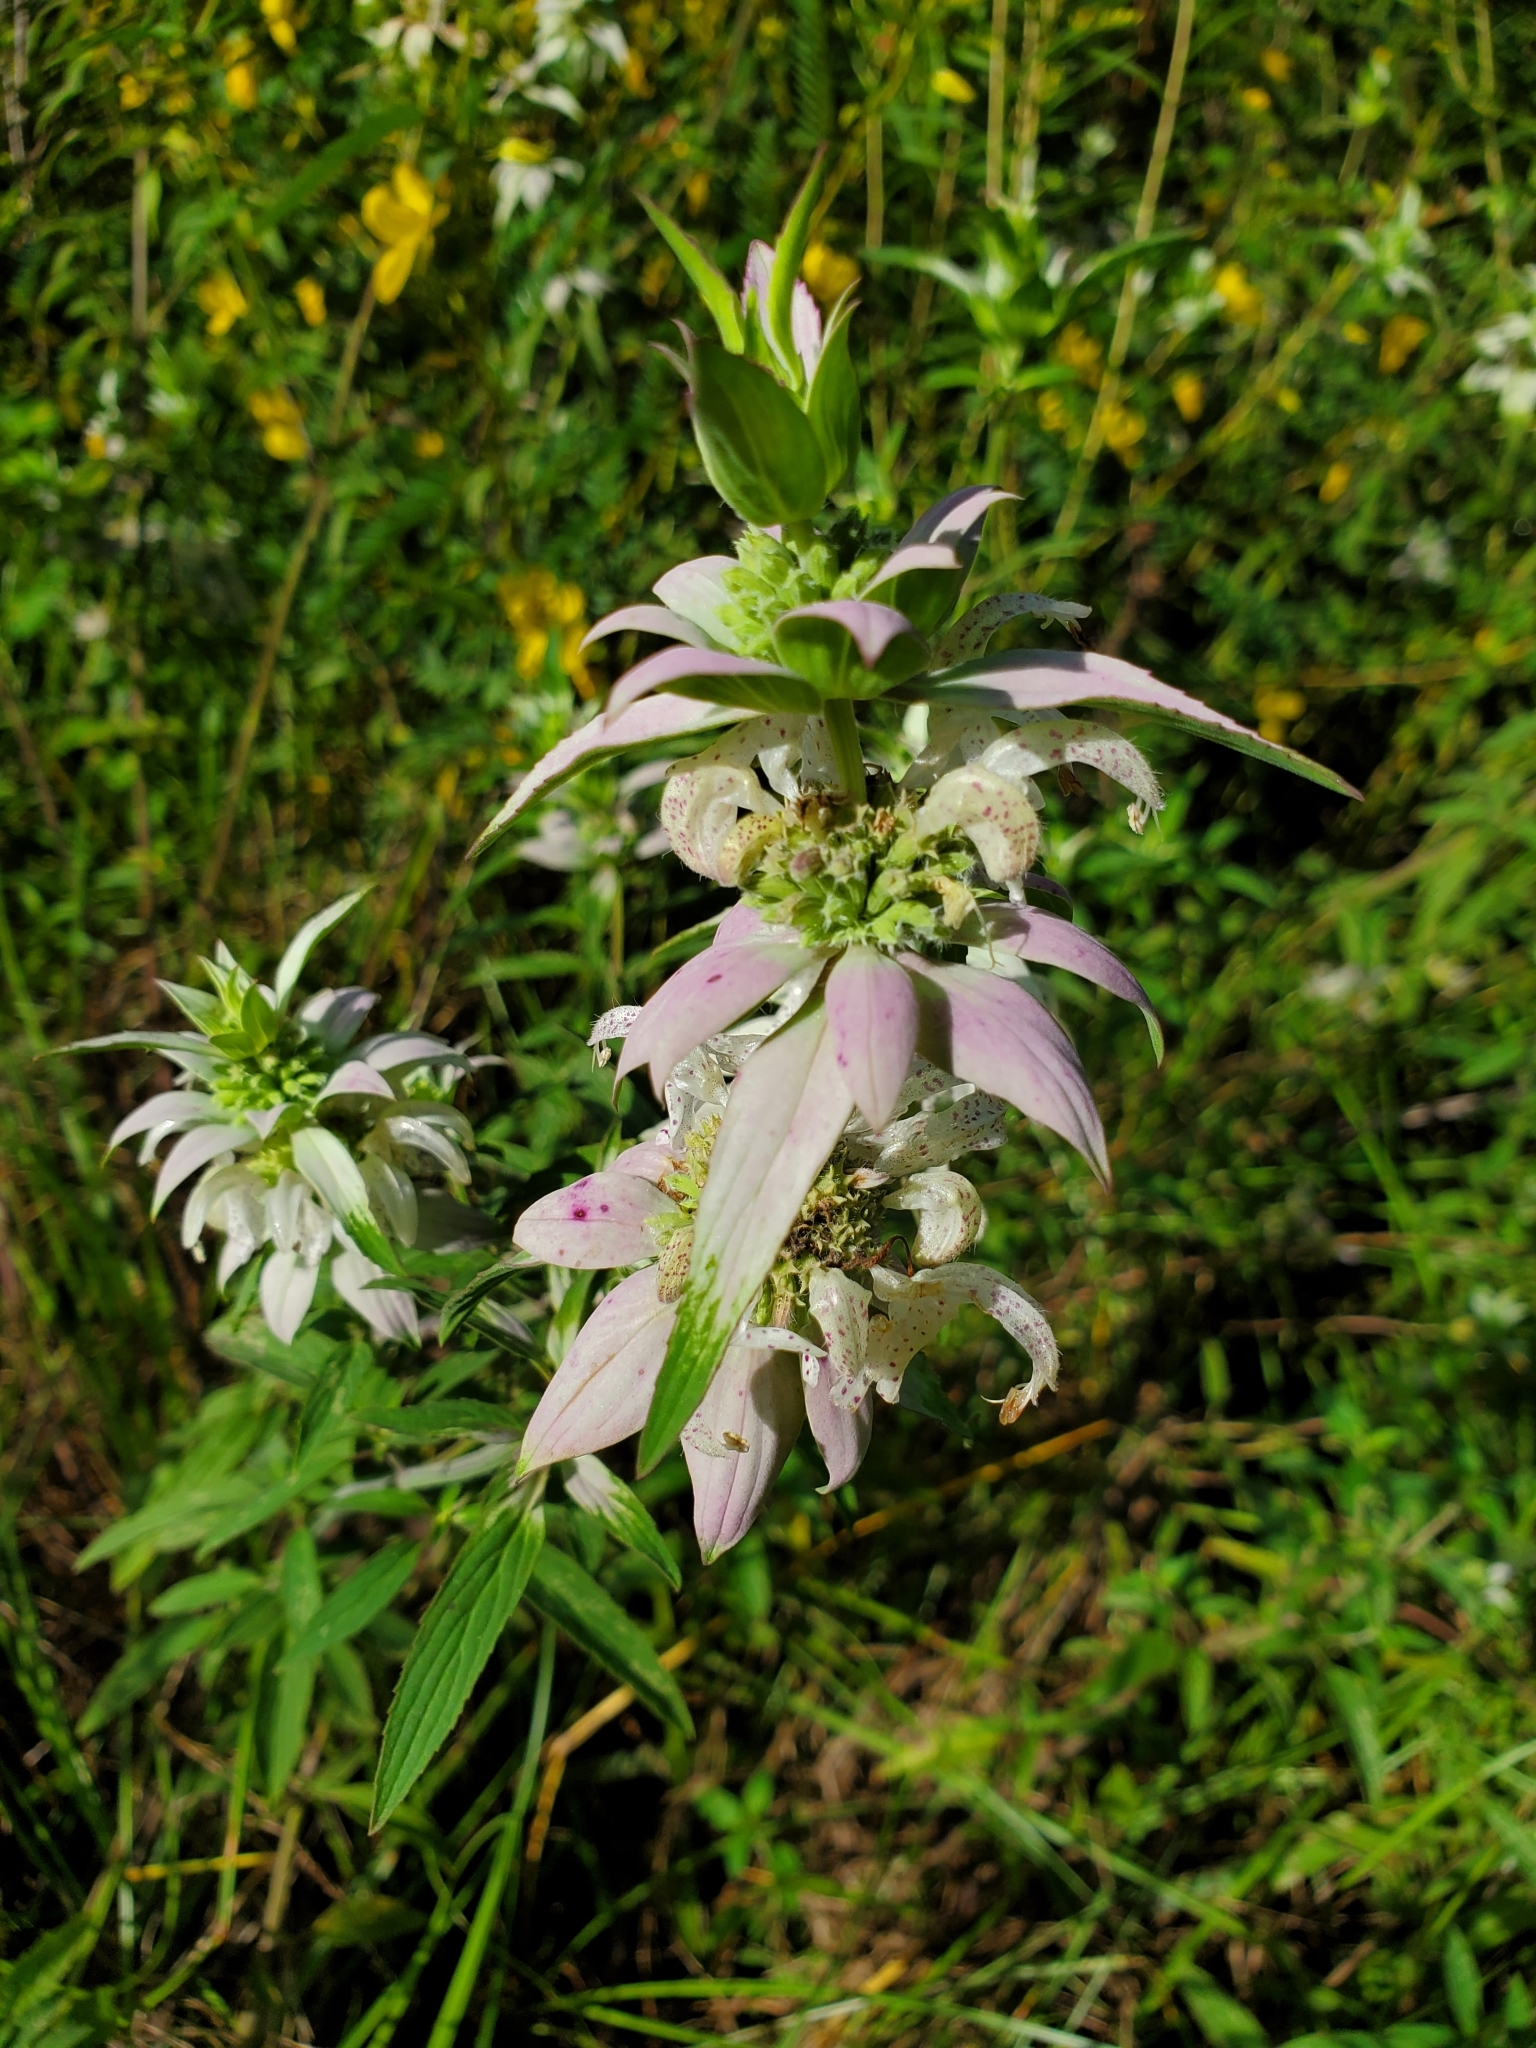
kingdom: Plantae
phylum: Tracheophyta
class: Magnoliopsida
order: Lamiales
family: Lamiaceae
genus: Monarda
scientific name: Monarda punctata
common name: Dotted monarda
